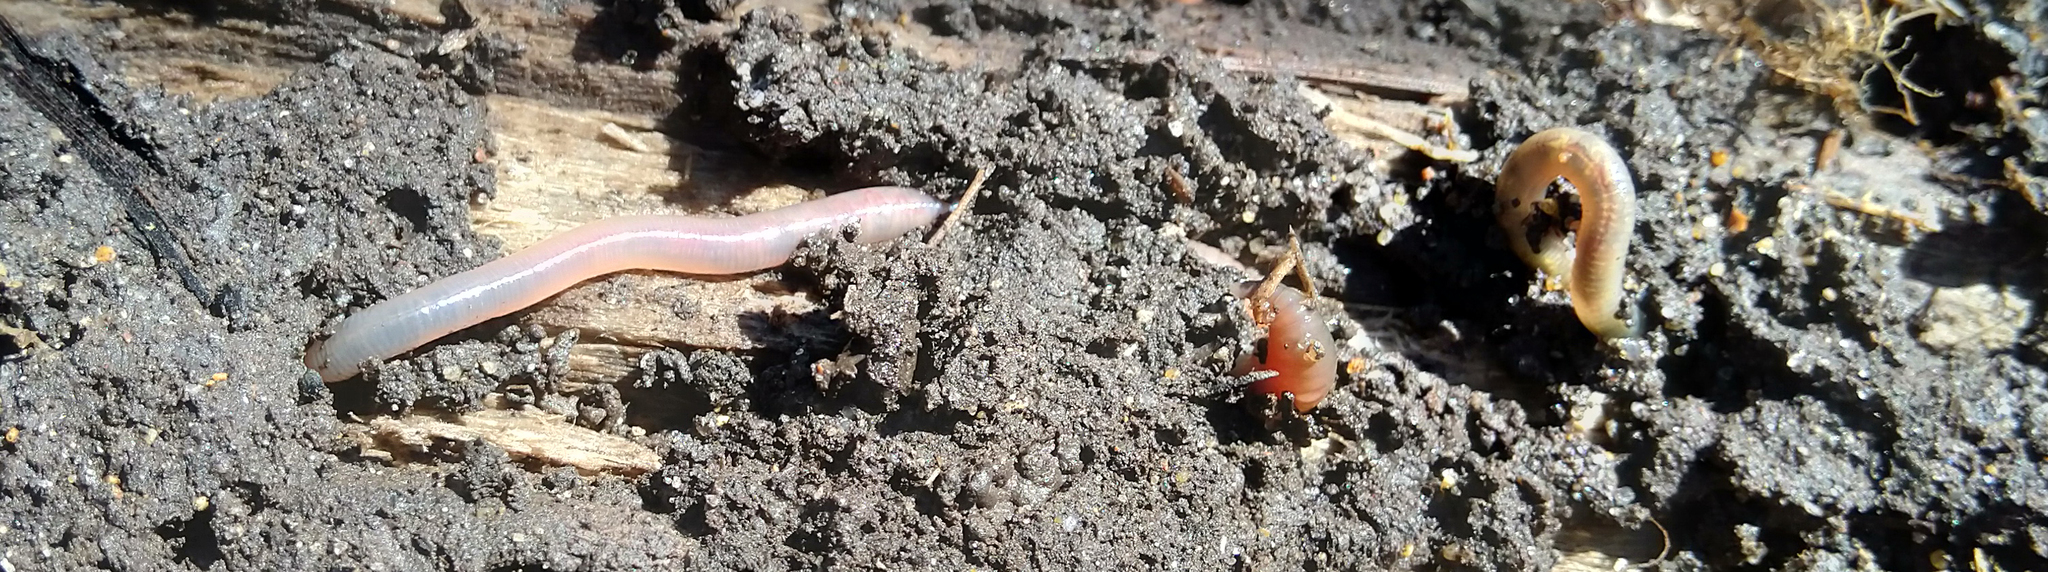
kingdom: Animalia
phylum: Annelida
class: Clitellata
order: Crassiclitellata
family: Lumbricidae
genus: Lumbricus
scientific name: Lumbricus terrestris
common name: Common earthworm
